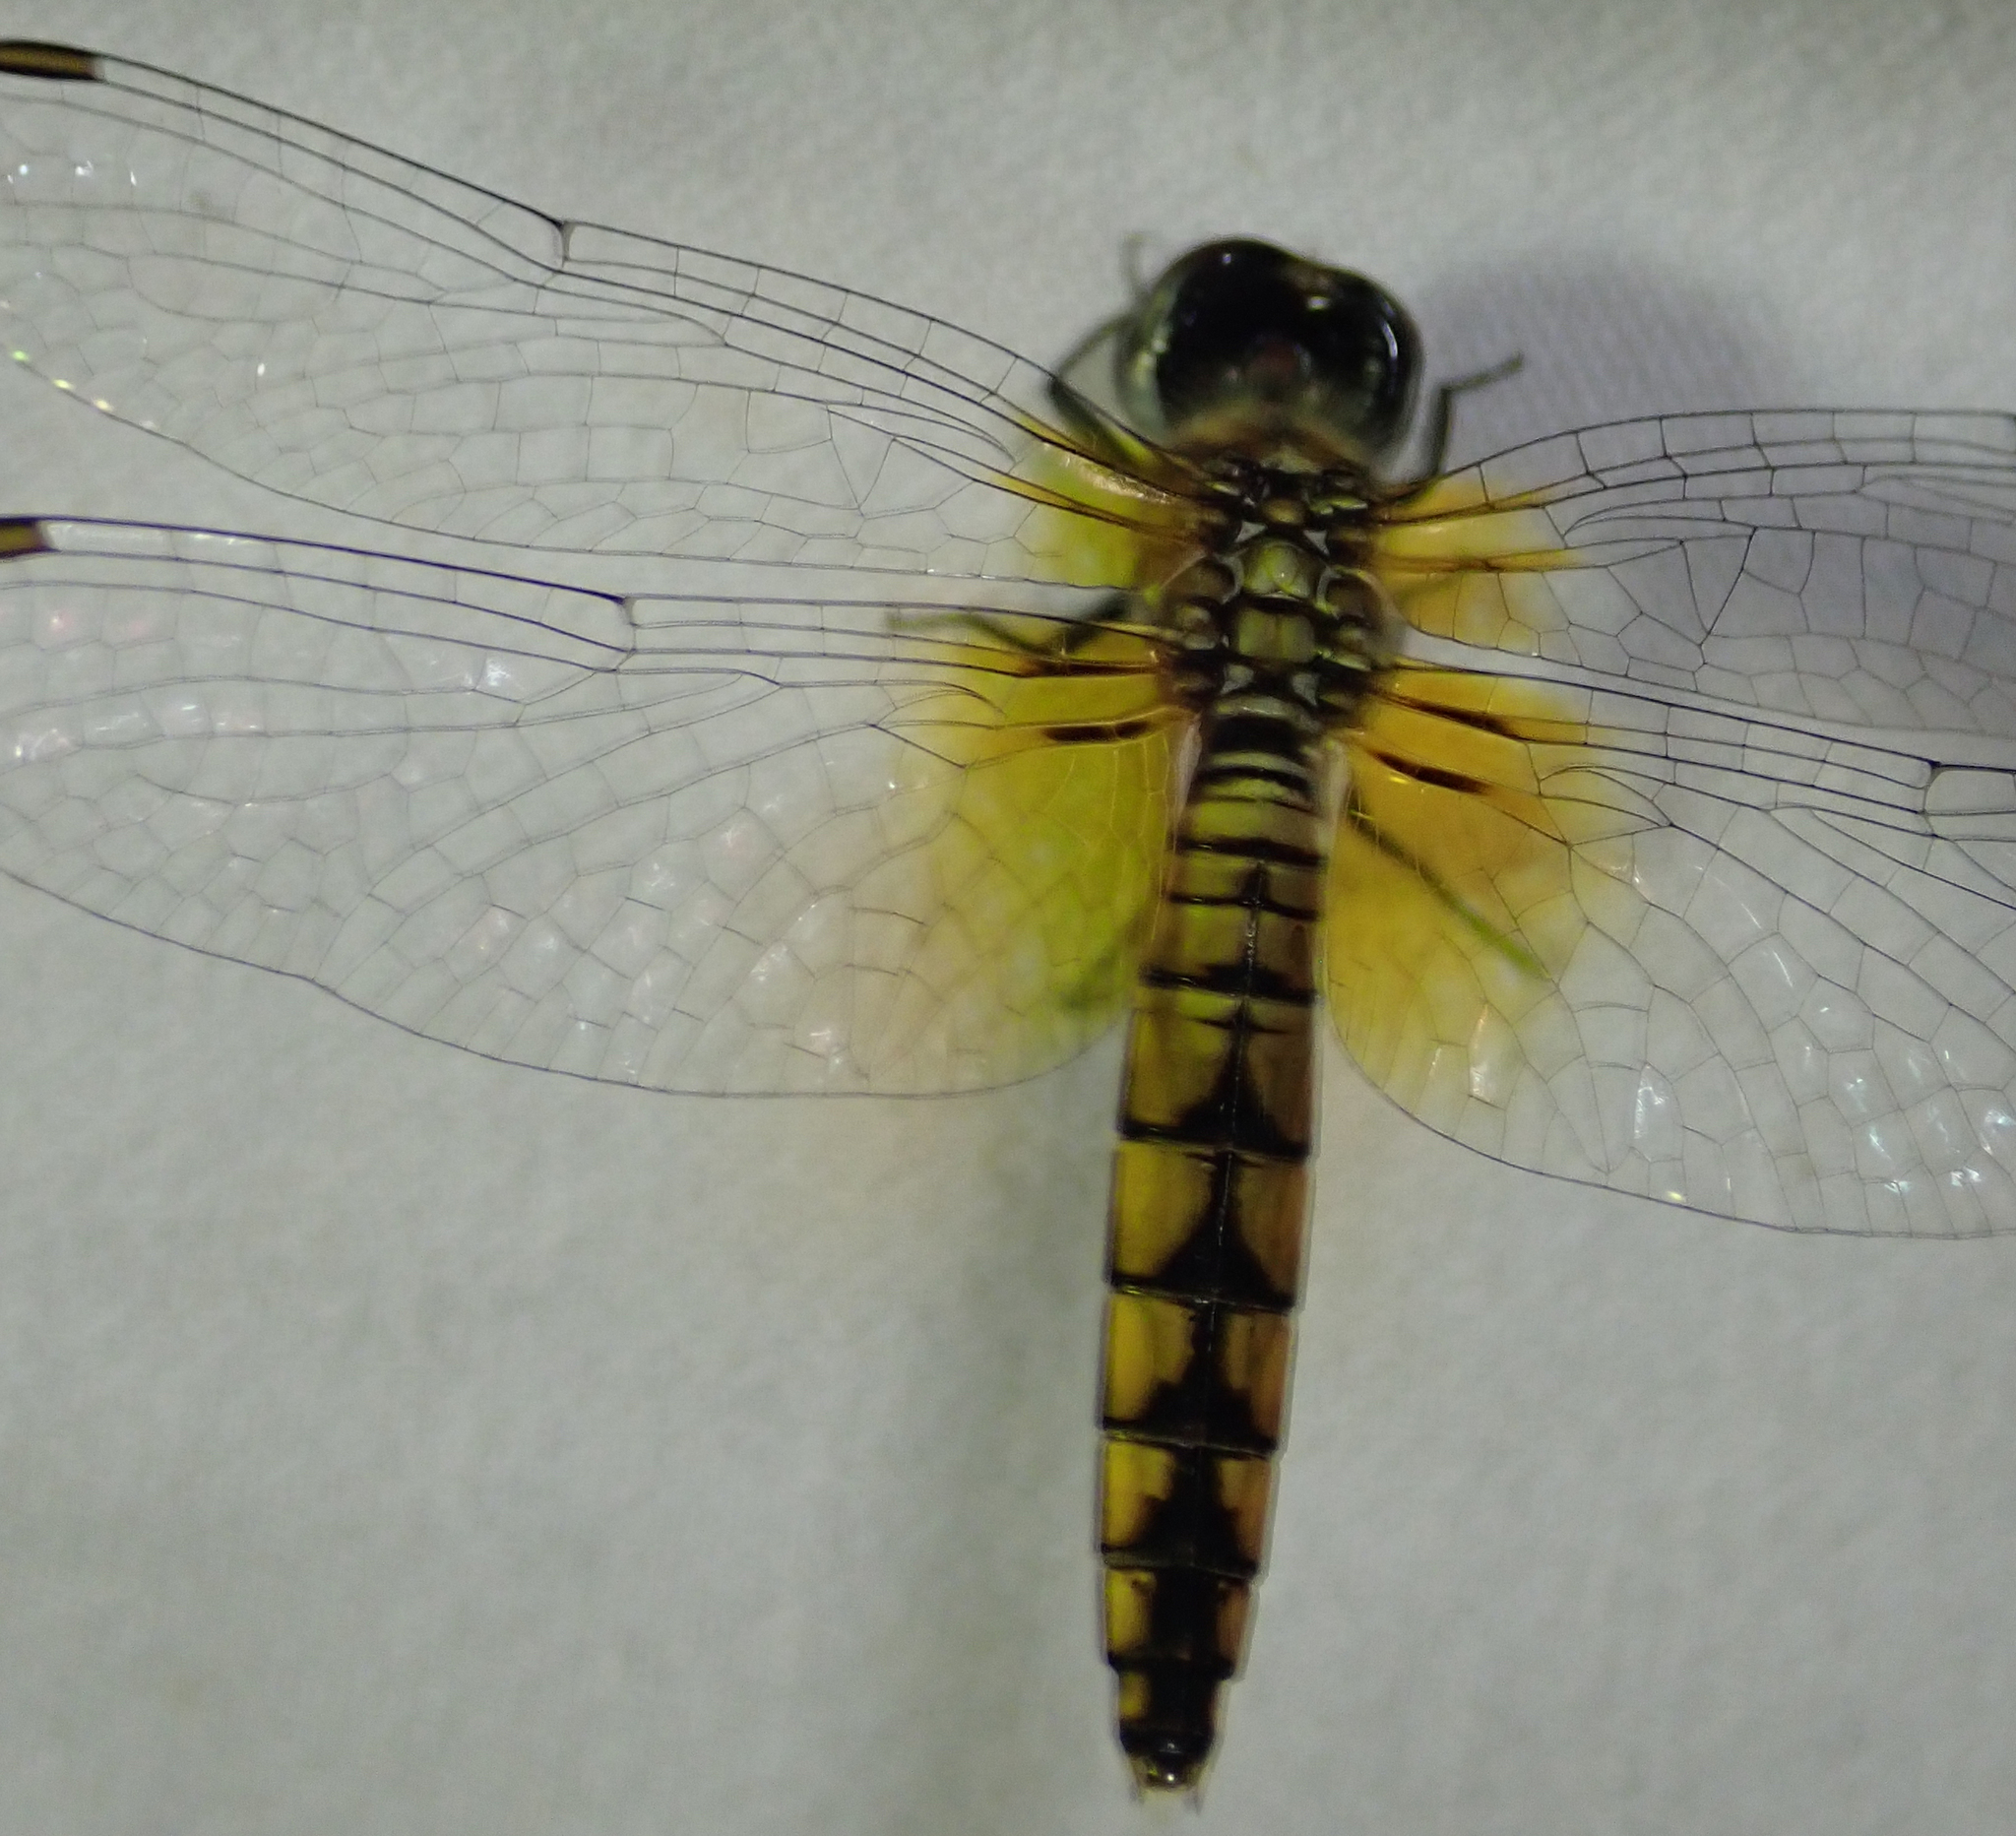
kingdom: Animalia
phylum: Arthropoda
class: Insecta
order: Odonata
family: Libellulidae
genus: Aethriamanta
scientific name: Aethriamanta rezia
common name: Pygmy basker
